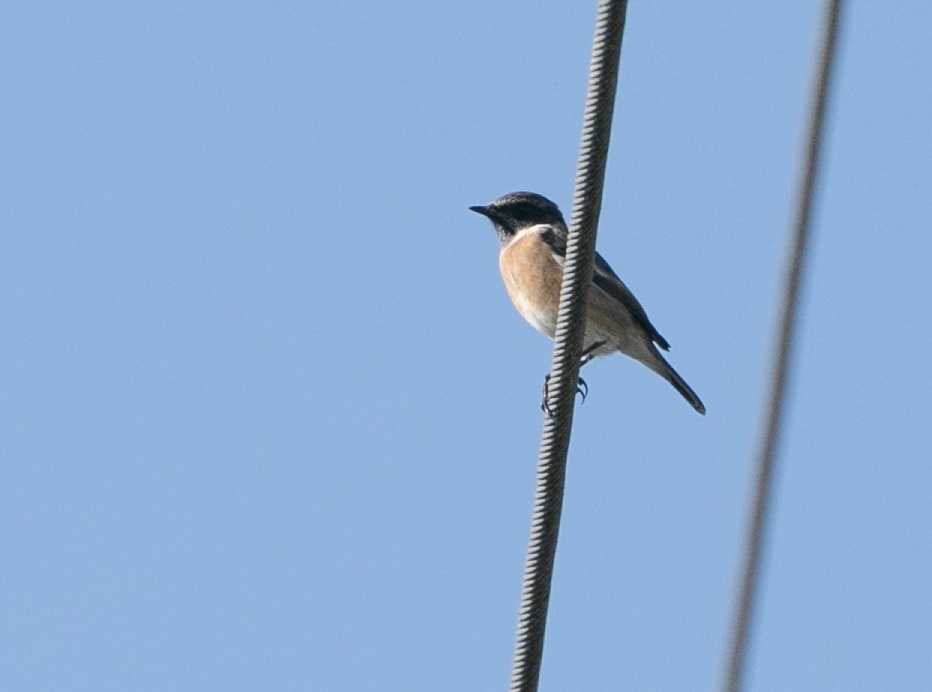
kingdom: Animalia
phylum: Chordata
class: Aves
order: Passeriformes
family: Muscicapidae
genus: Saxicola
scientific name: Saxicola rubicola
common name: European stonechat
